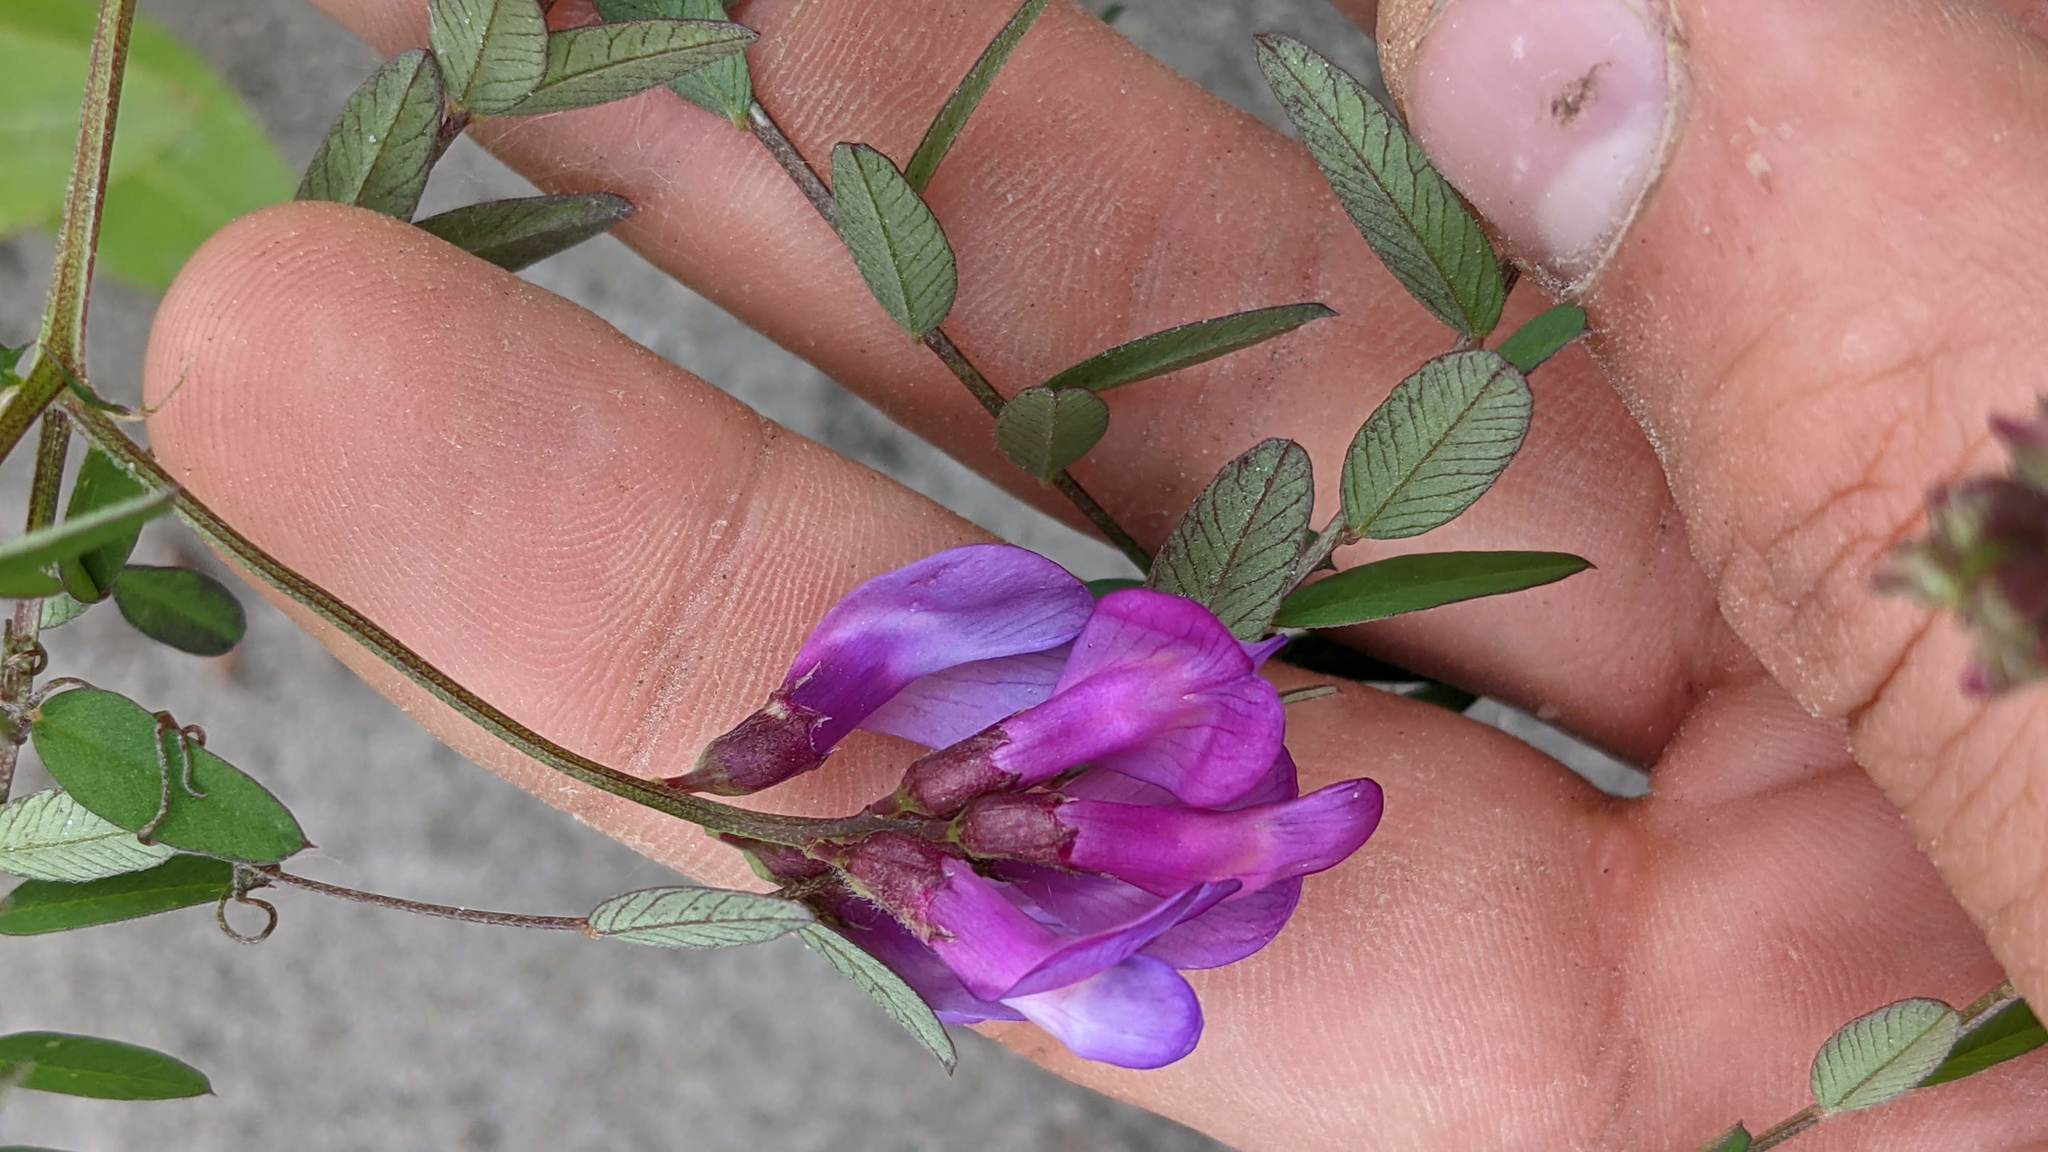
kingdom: Plantae
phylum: Tracheophyta
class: Magnoliopsida
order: Fabales
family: Fabaceae
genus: Vicia
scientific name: Vicia americana
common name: American vetch
